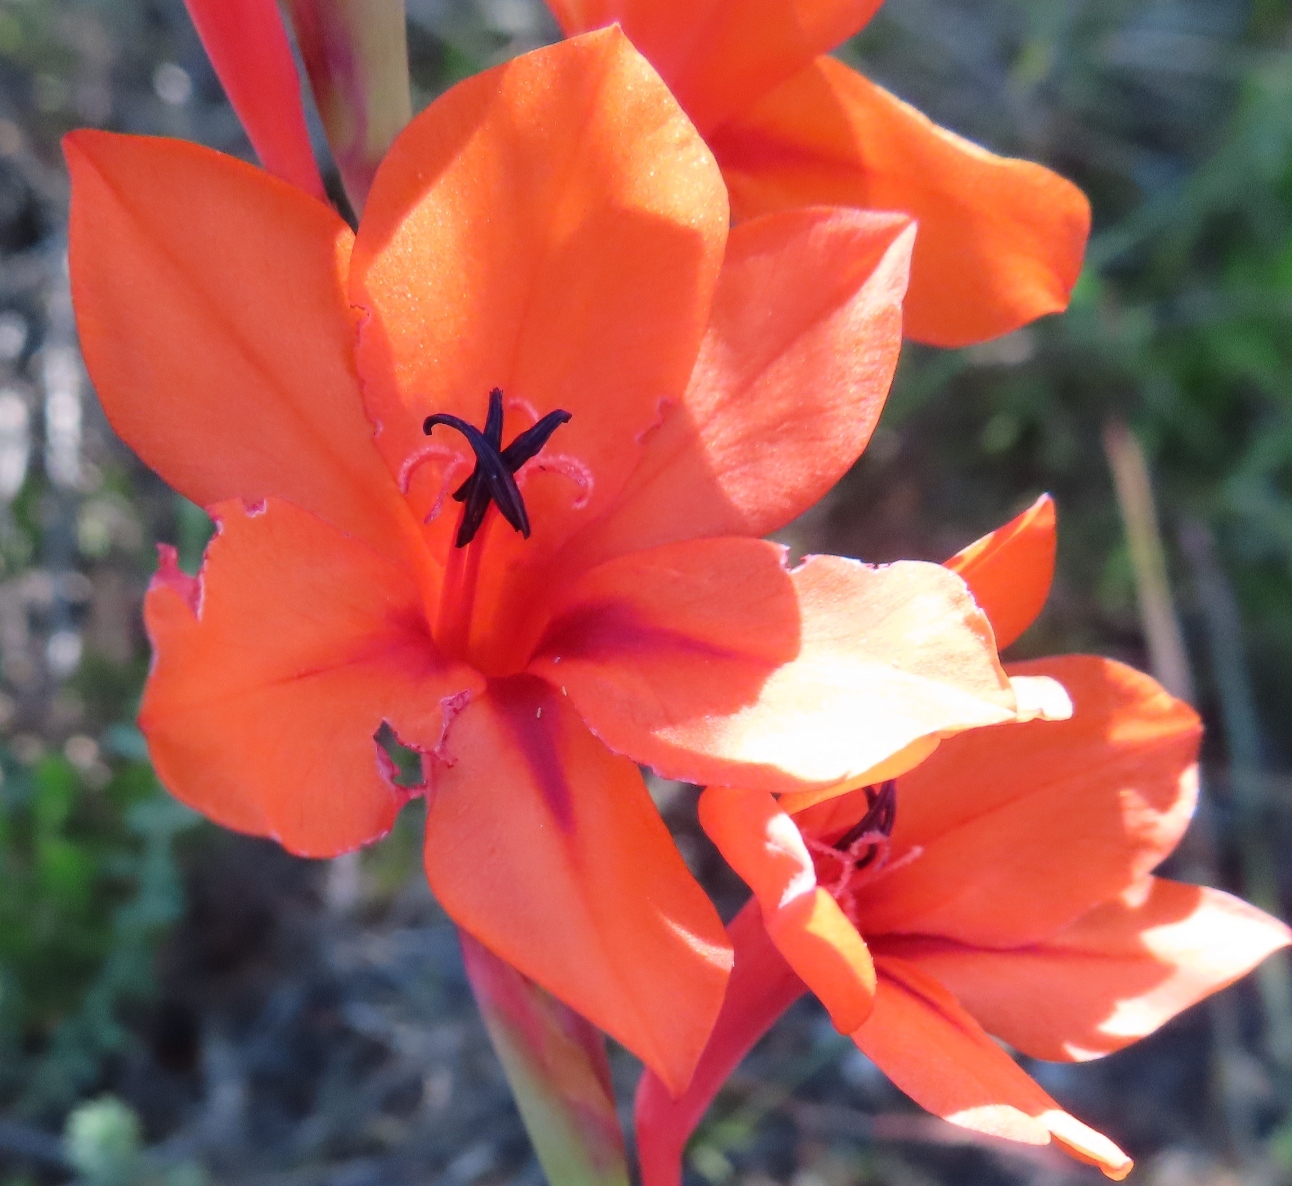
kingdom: Plantae
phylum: Tracheophyta
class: Liliopsida
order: Asparagales
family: Iridaceae
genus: Watsonia
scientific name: Watsonia stenosiphon
